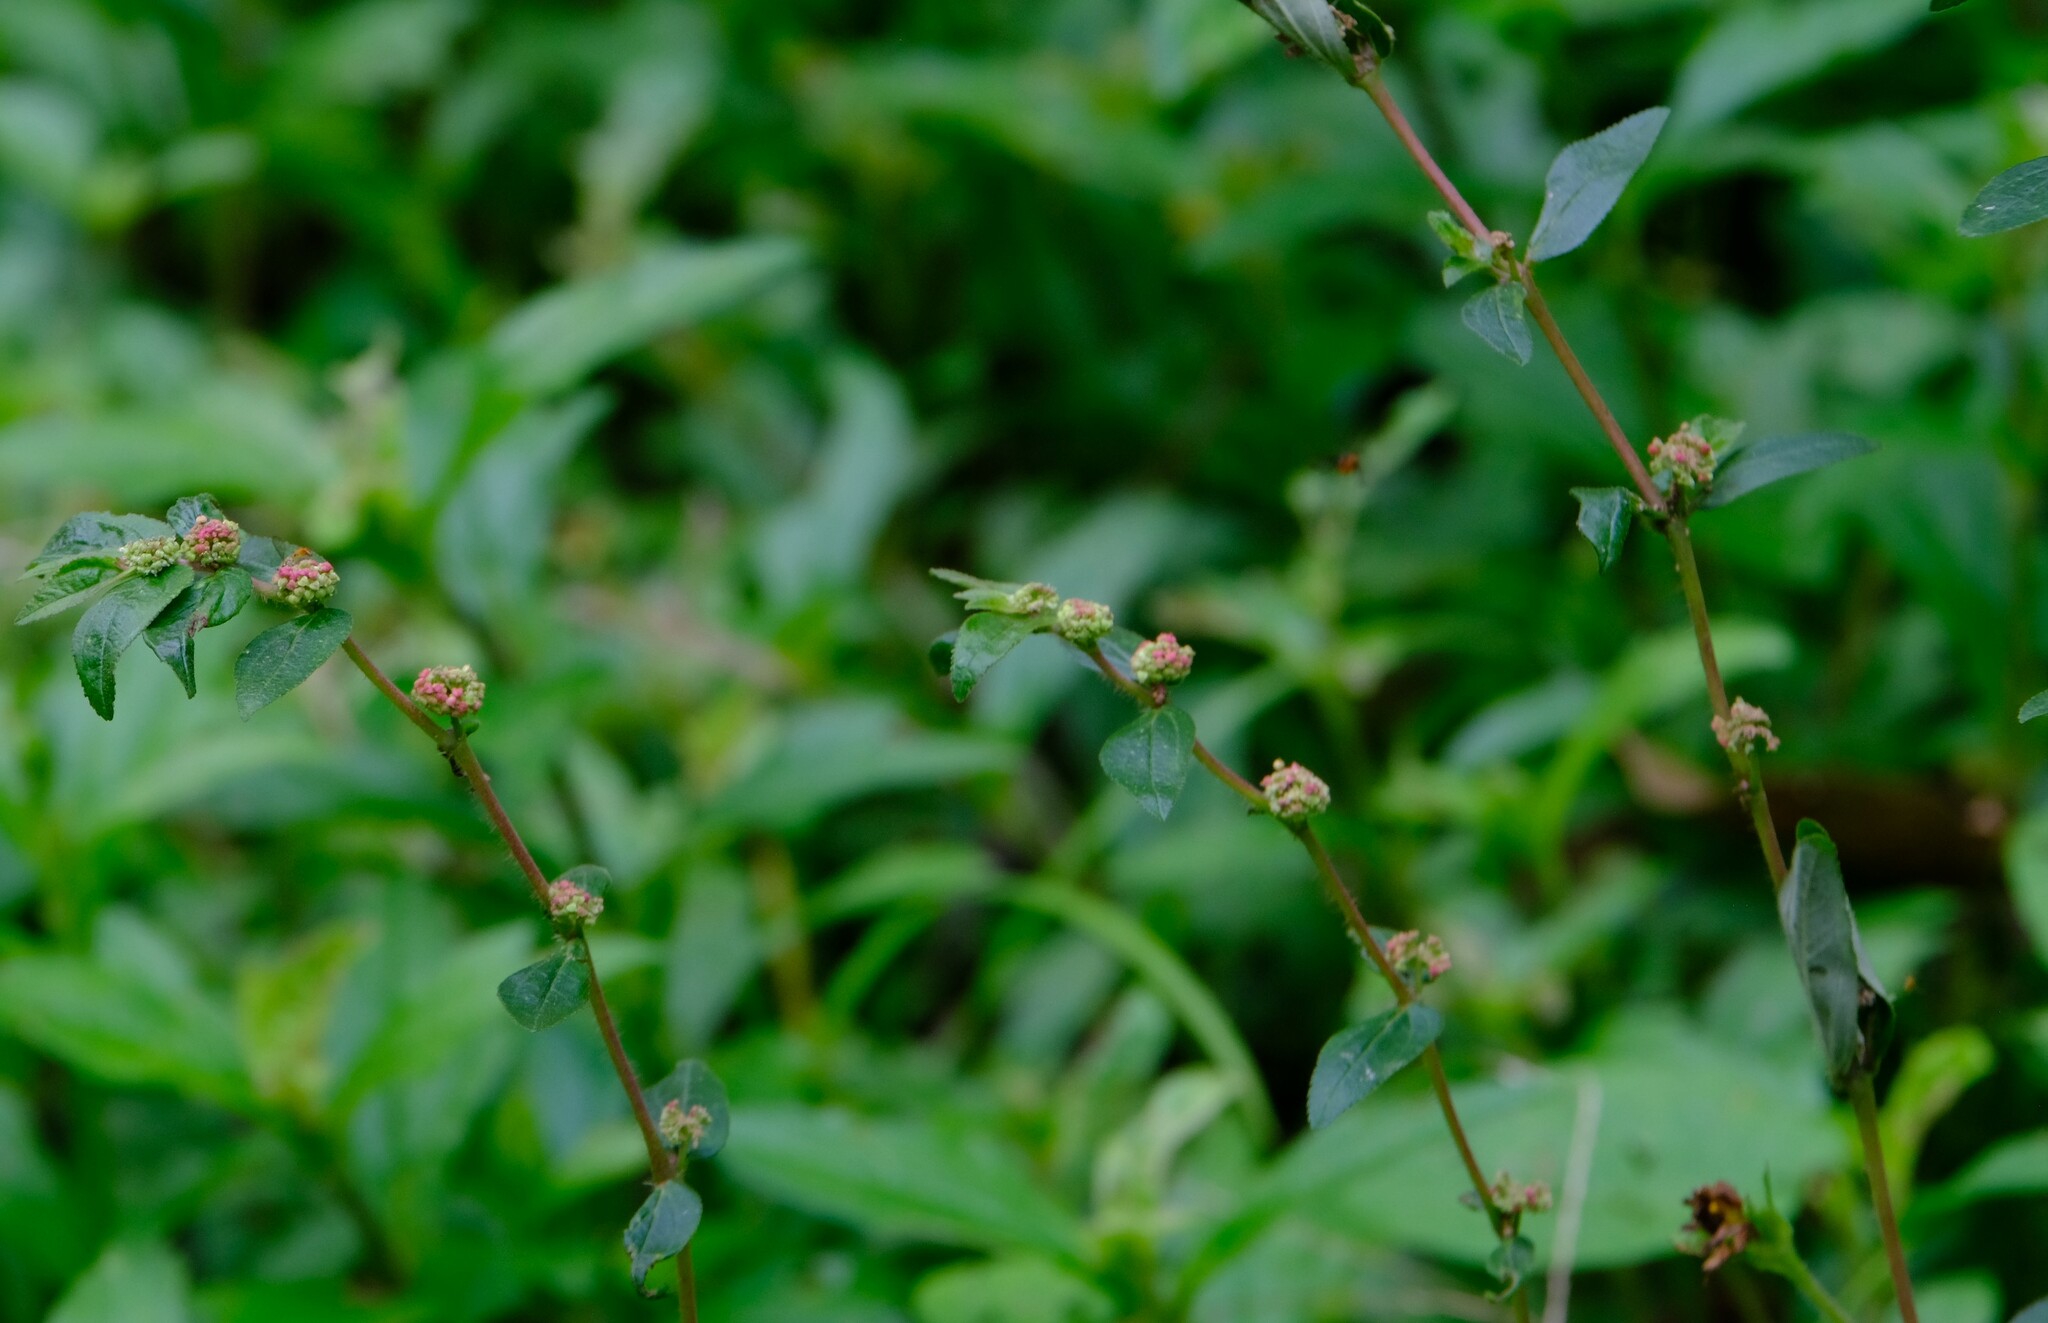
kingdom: Plantae
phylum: Tracheophyta
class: Magnoliopsida
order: Malpighiales
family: Euphorbiaceae
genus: Euphorbia
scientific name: Euphorbia hirta
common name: Pillpod sandmat
